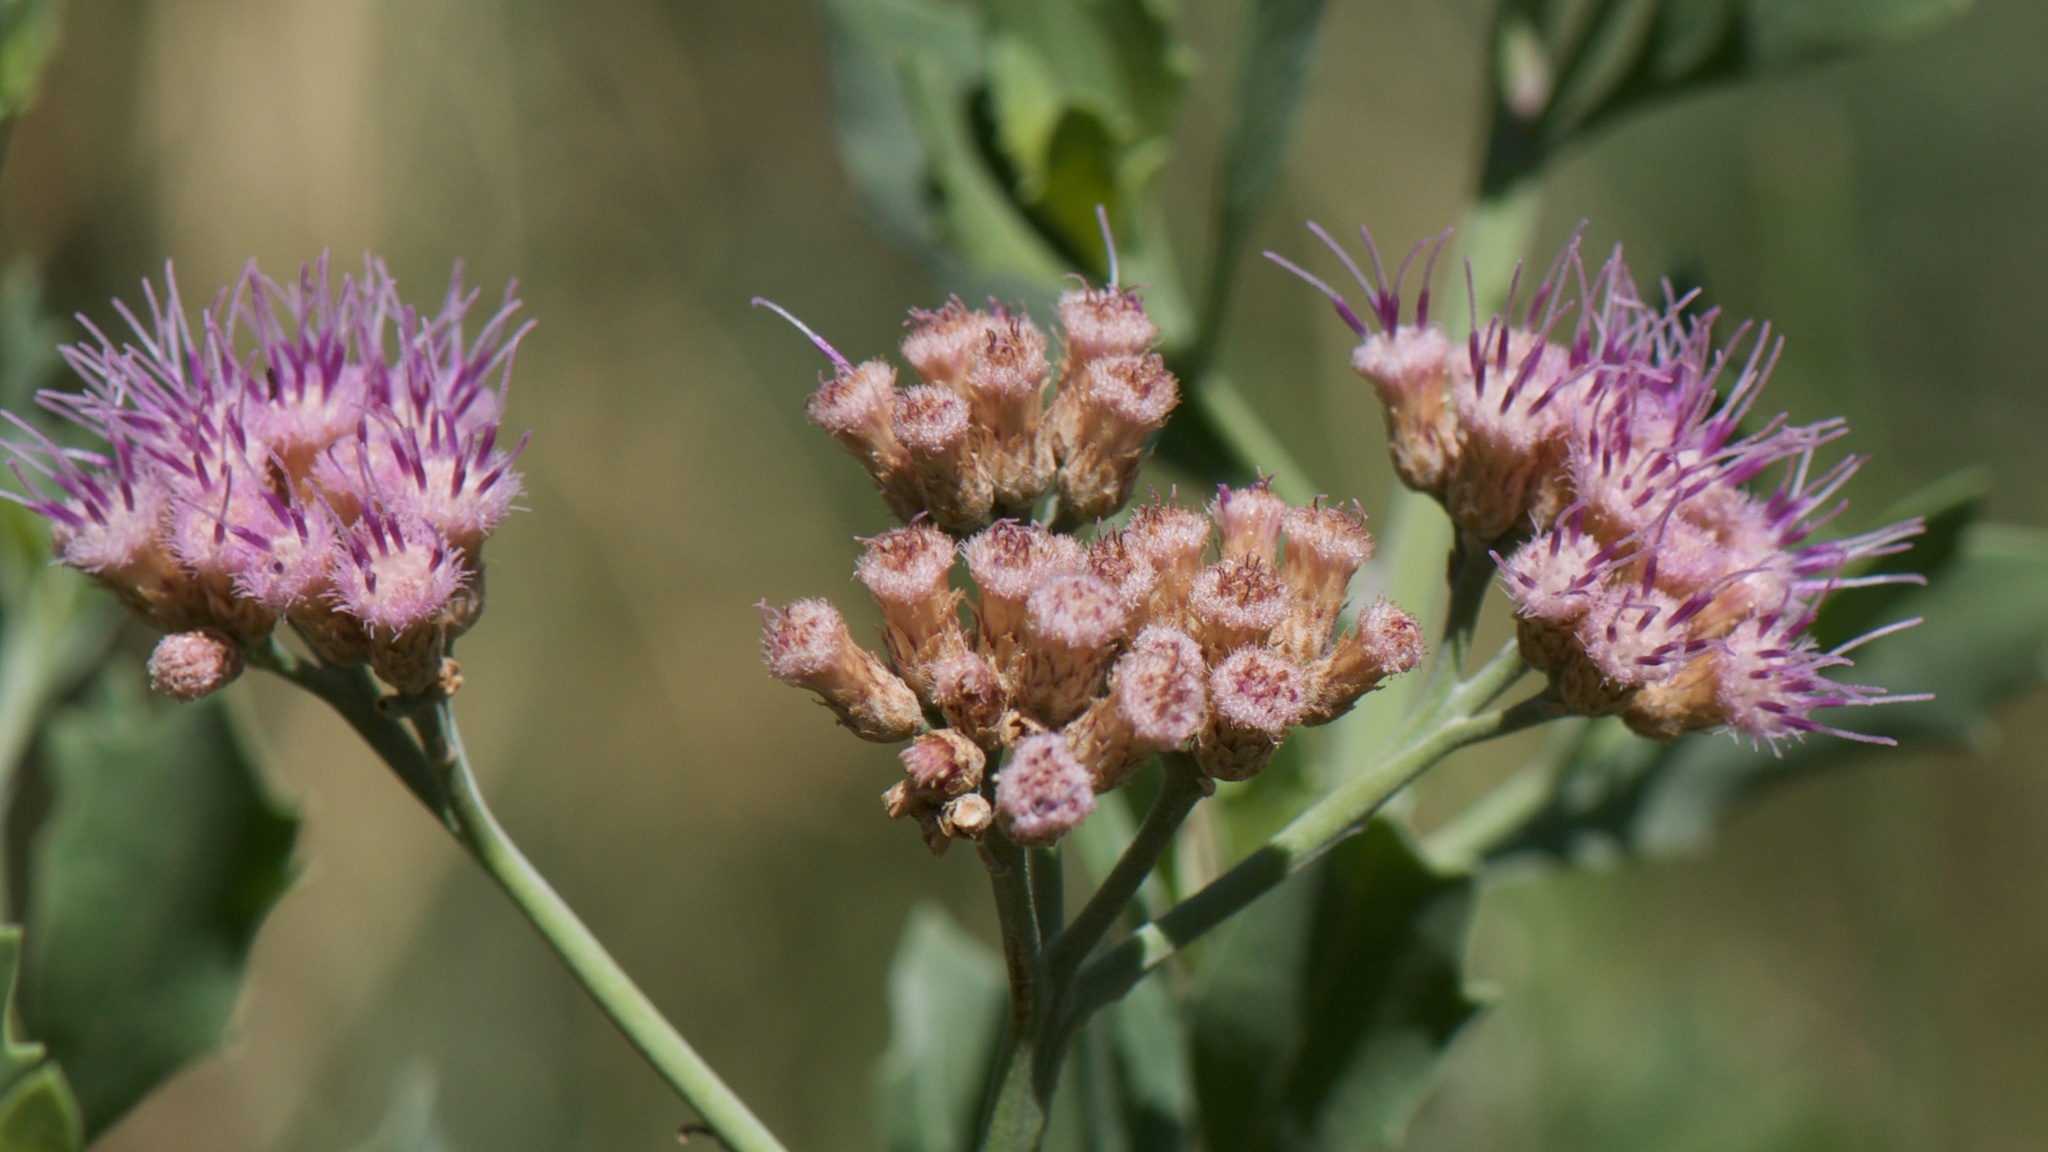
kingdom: Animalia
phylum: Arthropoda
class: Insecta
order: Hymenoptera
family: Apidae
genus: Apis
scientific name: Apis mellifera
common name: Honey bee
